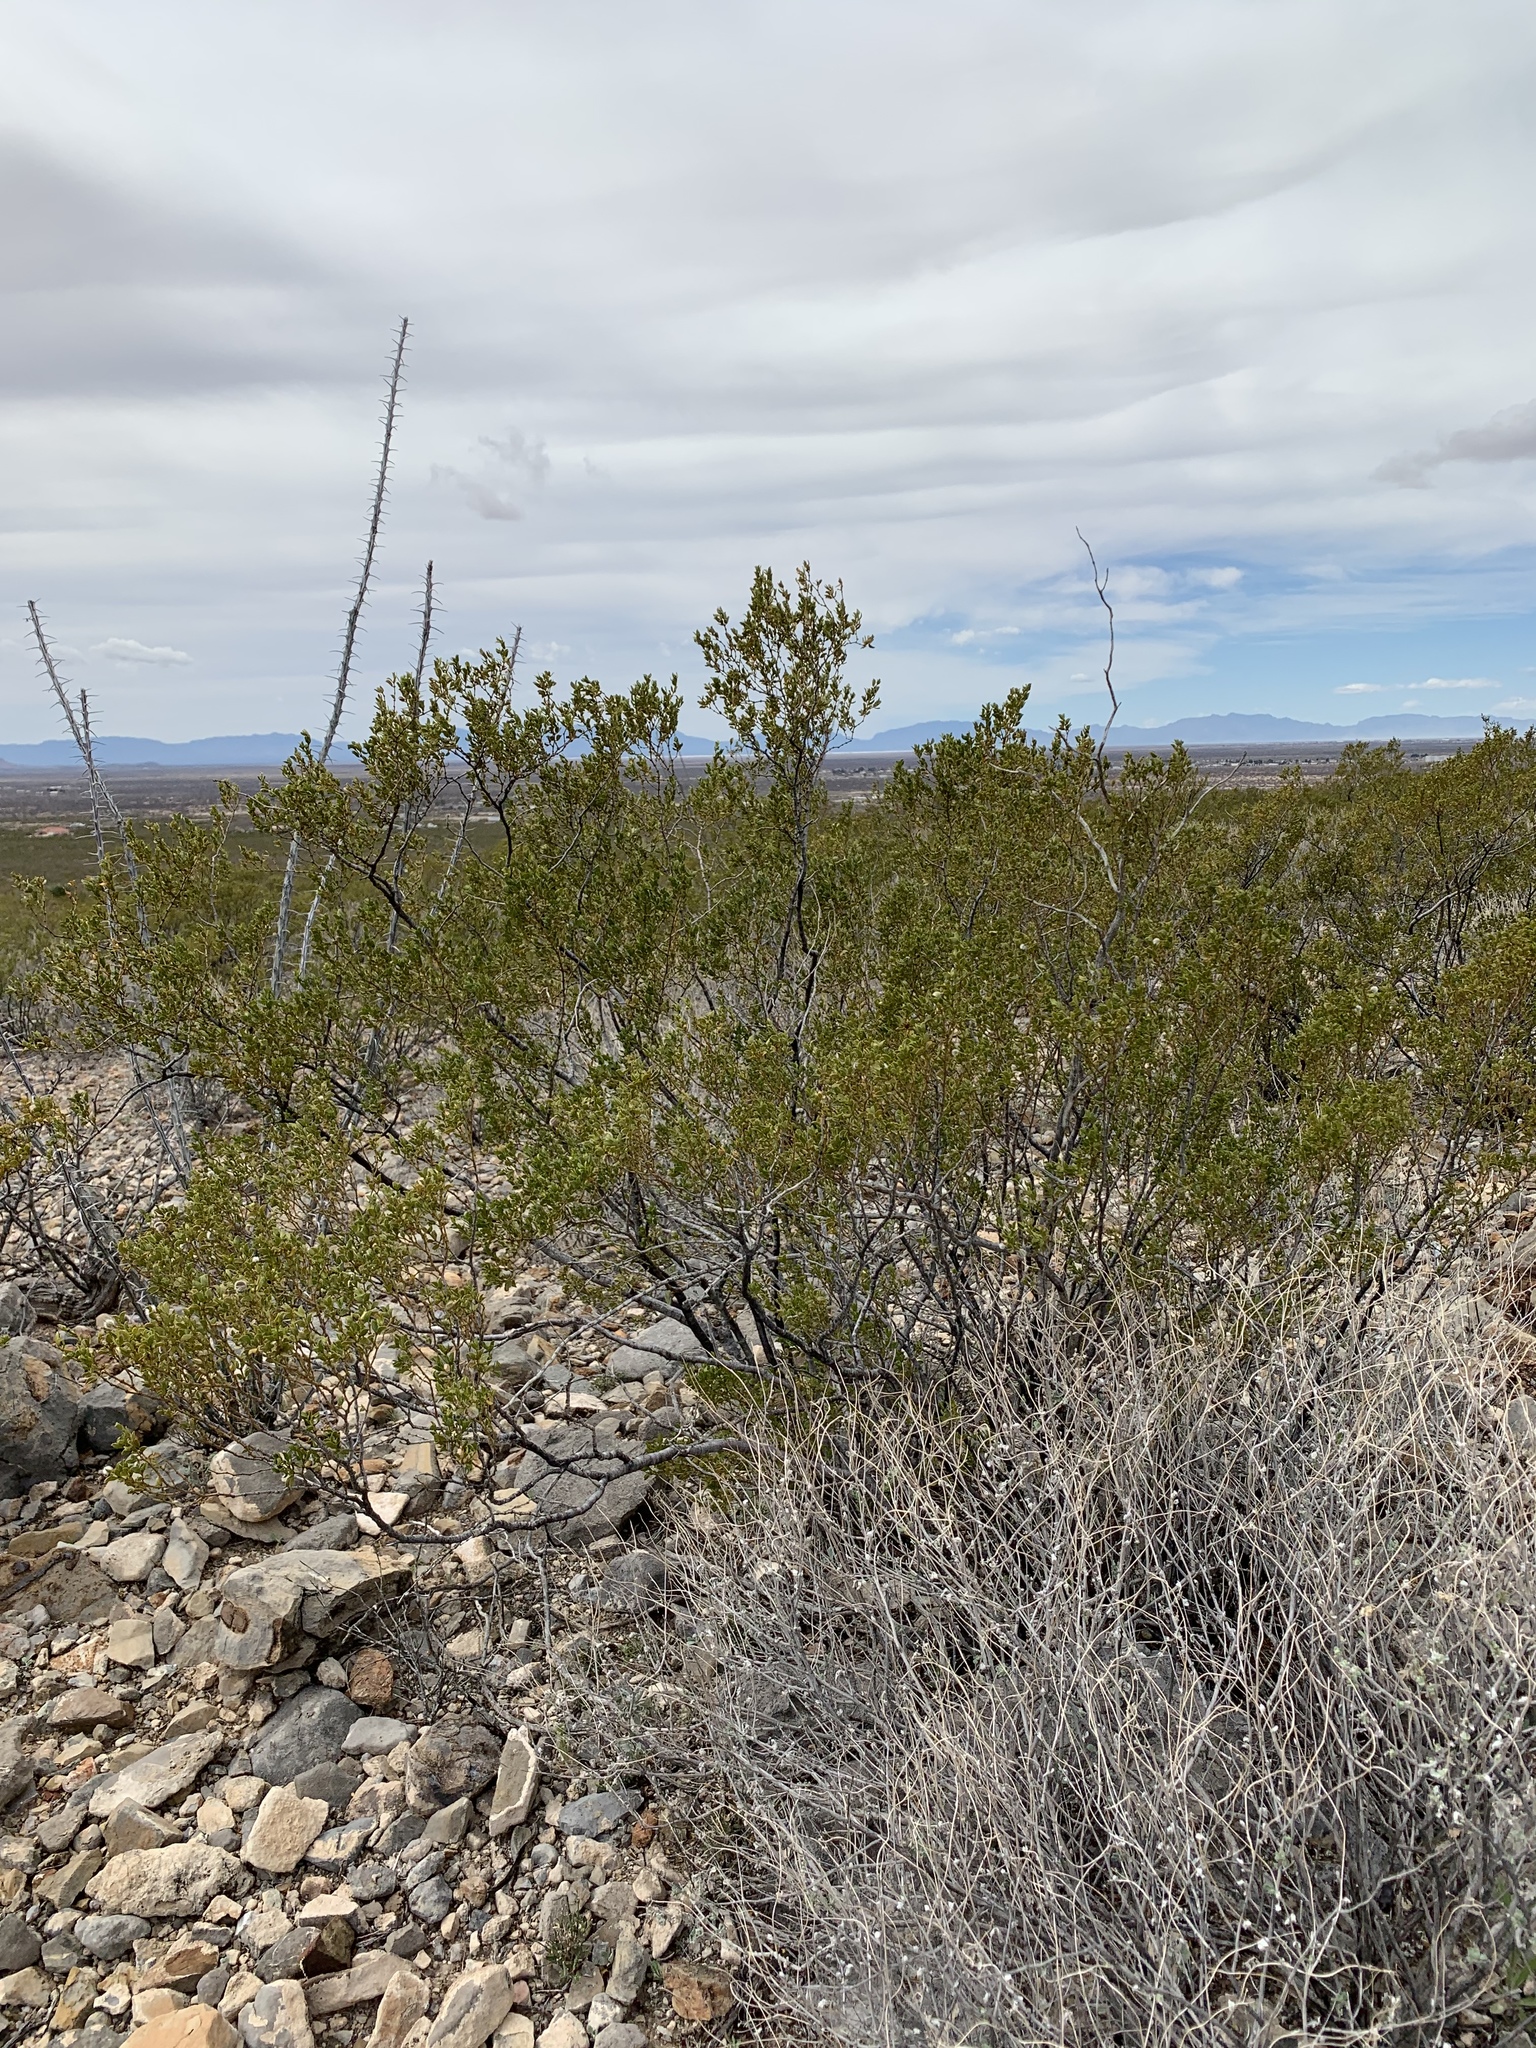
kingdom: Plantae
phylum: Tracheophyta
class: Magnoliopsida
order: Zygophyllales
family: Zygophyllaceae
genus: Larrea
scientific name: Larrea tridentata
